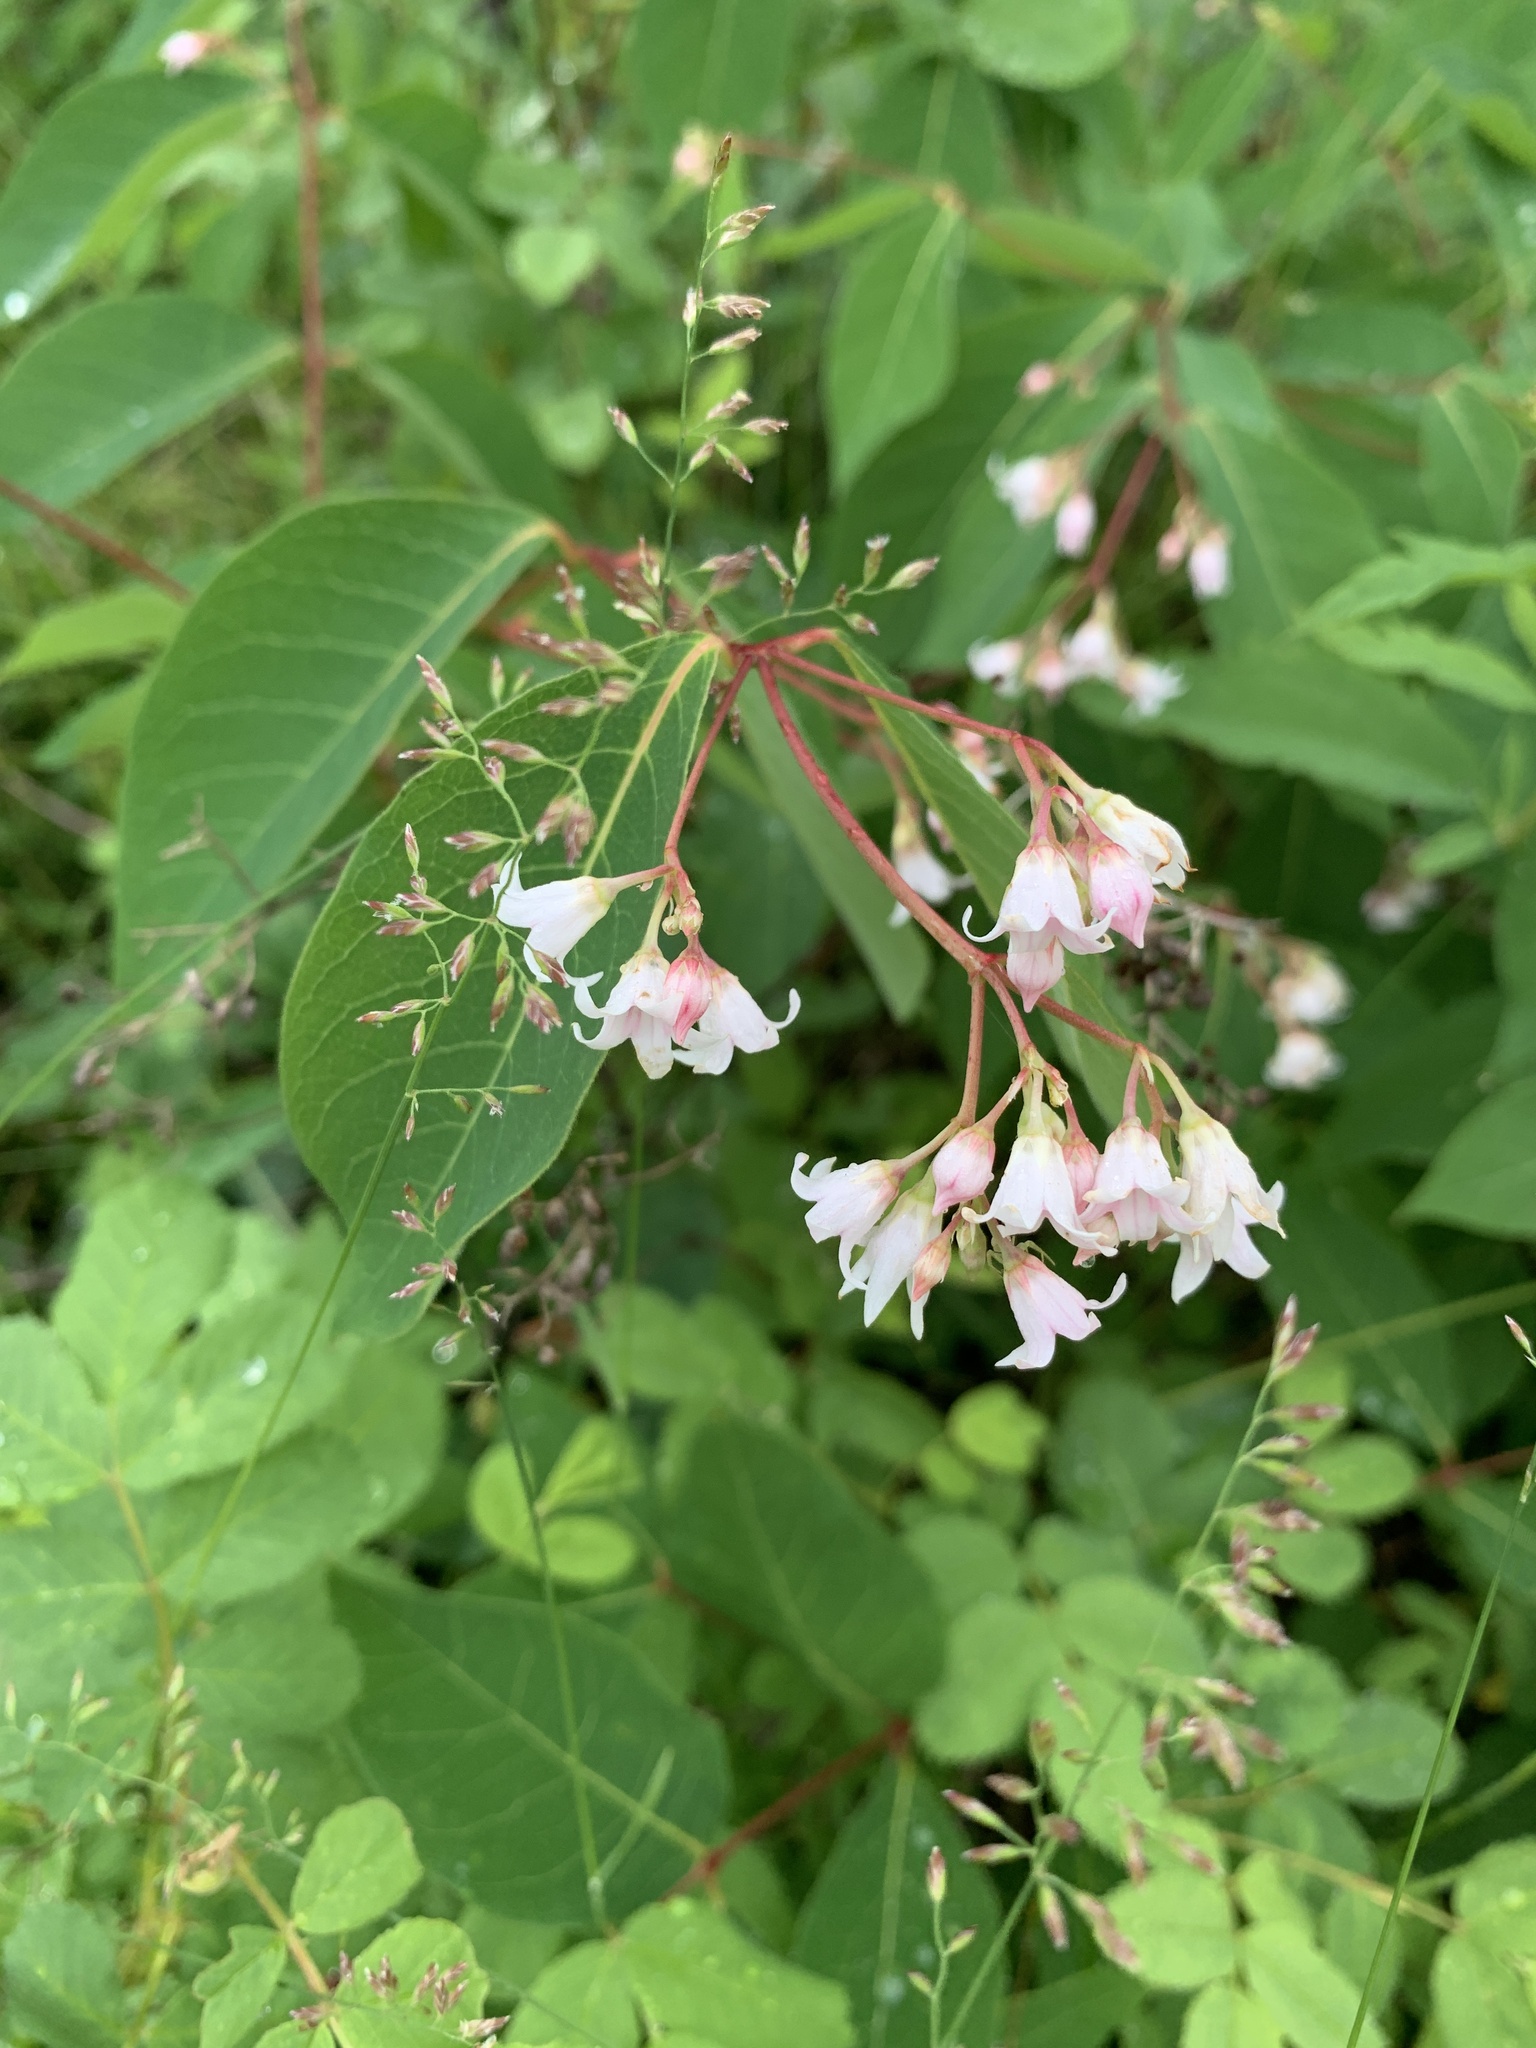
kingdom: Plantae
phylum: Tracheophyta
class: Magnoliopsida
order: Gentianales
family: Apocynaceae
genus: Apocynum
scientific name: Apocynum androsaemifolium
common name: Spreading dogbane
